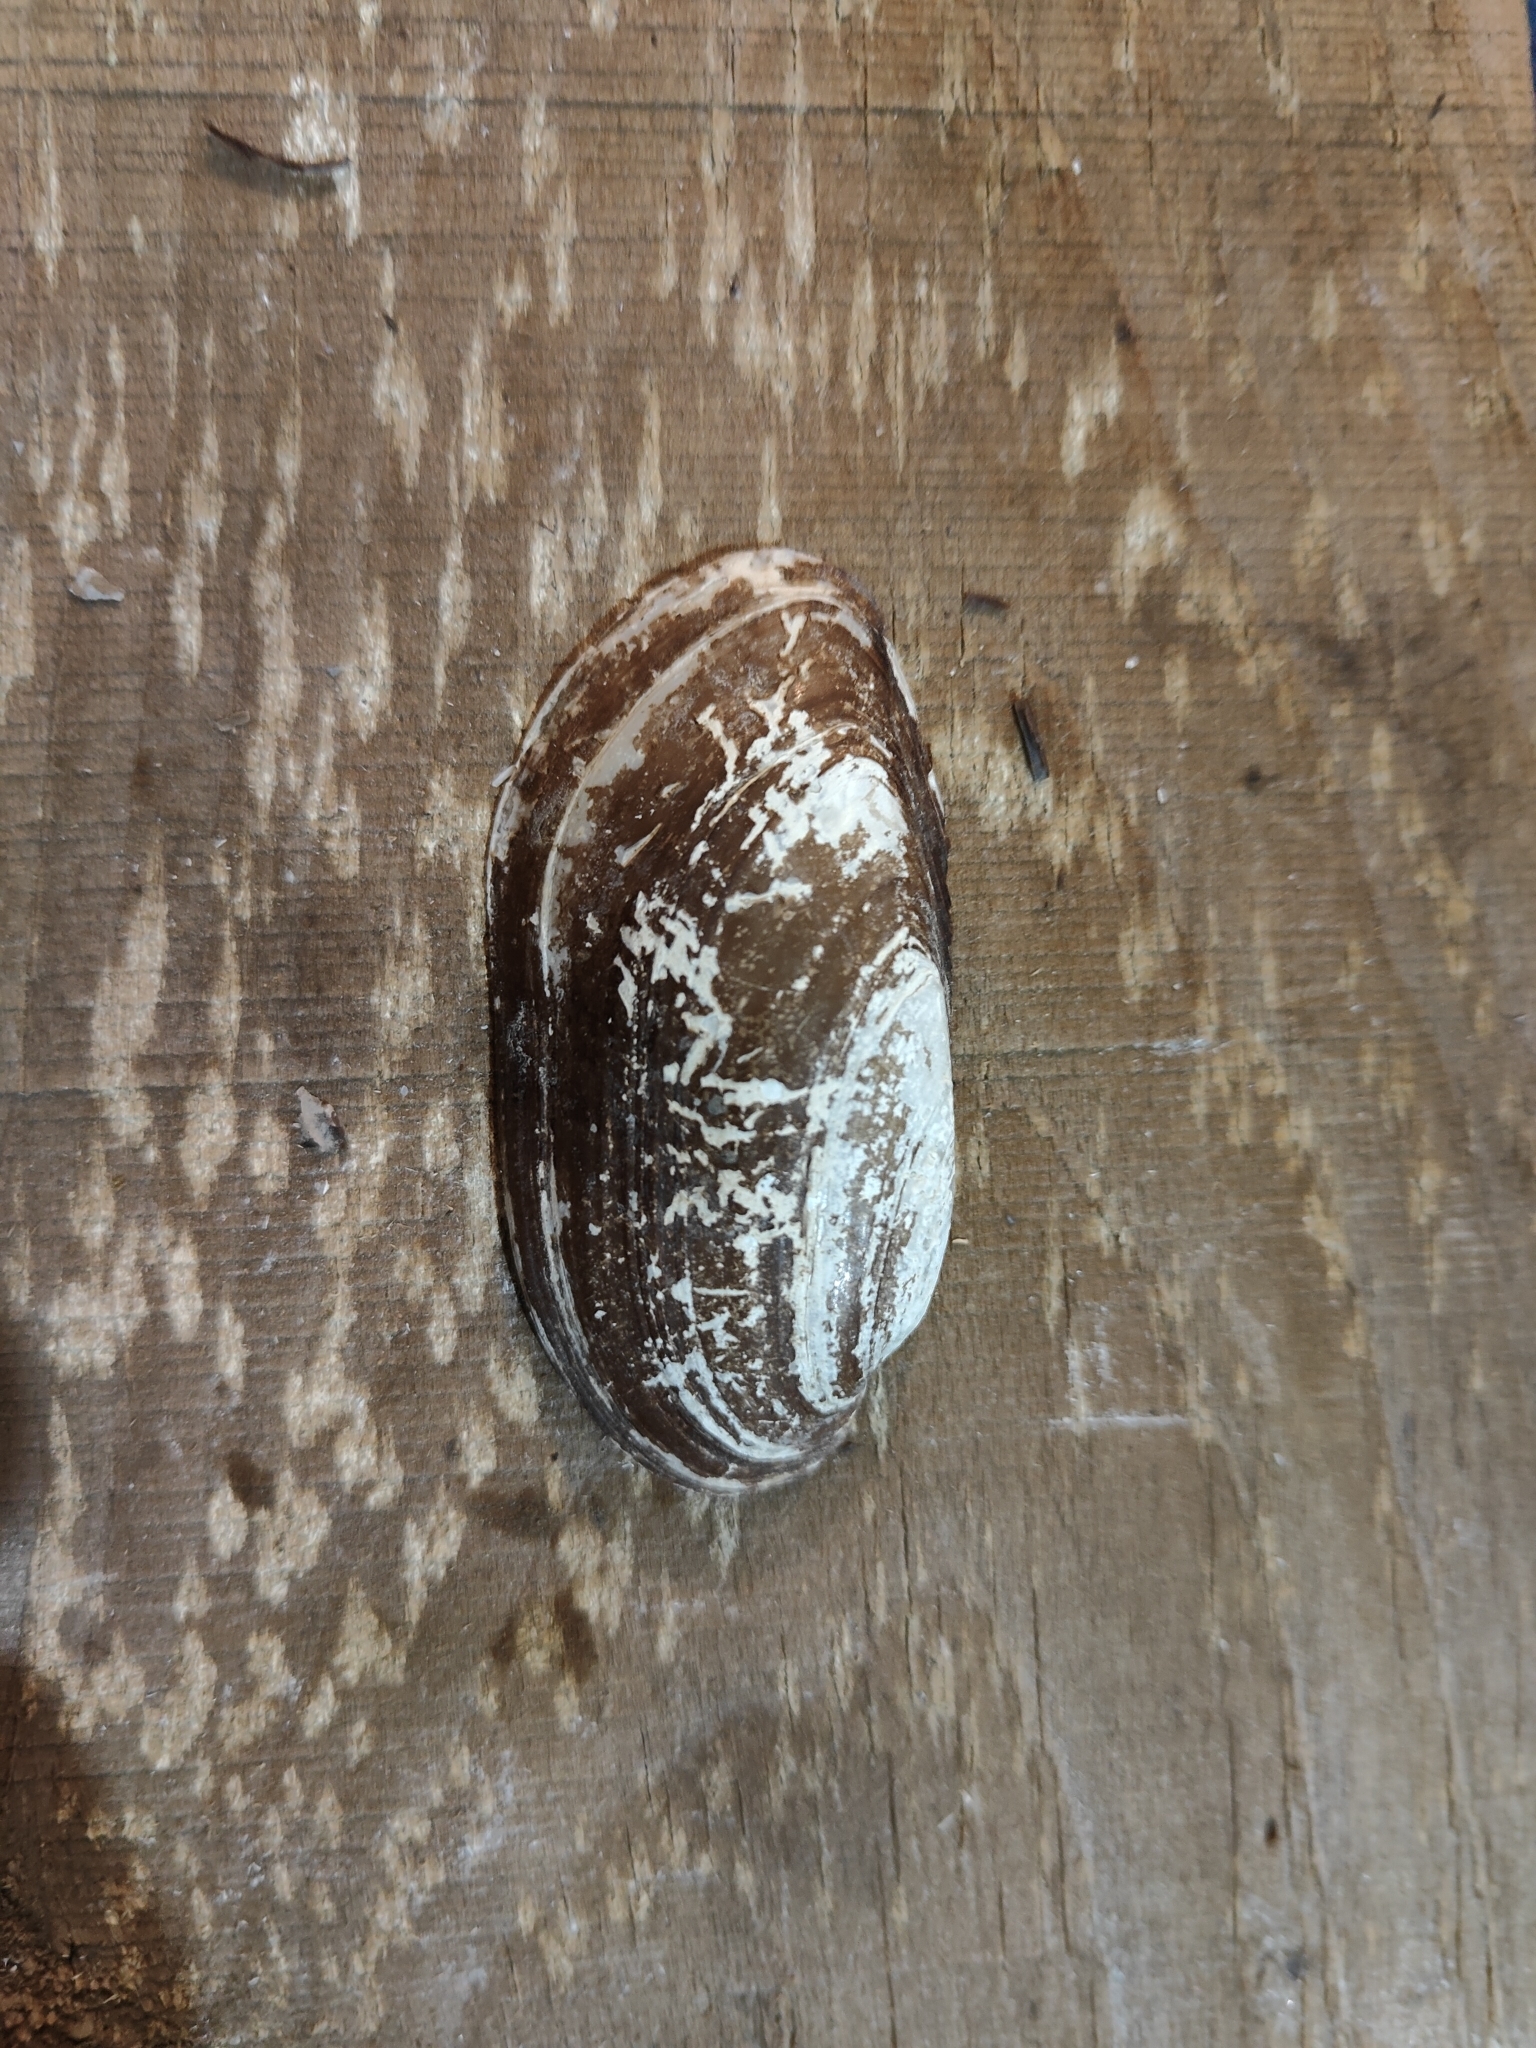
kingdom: Animalia
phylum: Mollusca
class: Bivalvia
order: Unionida
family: Unionidae
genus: Lampsilis
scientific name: Lampsilis teres
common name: Yellow sandshell
